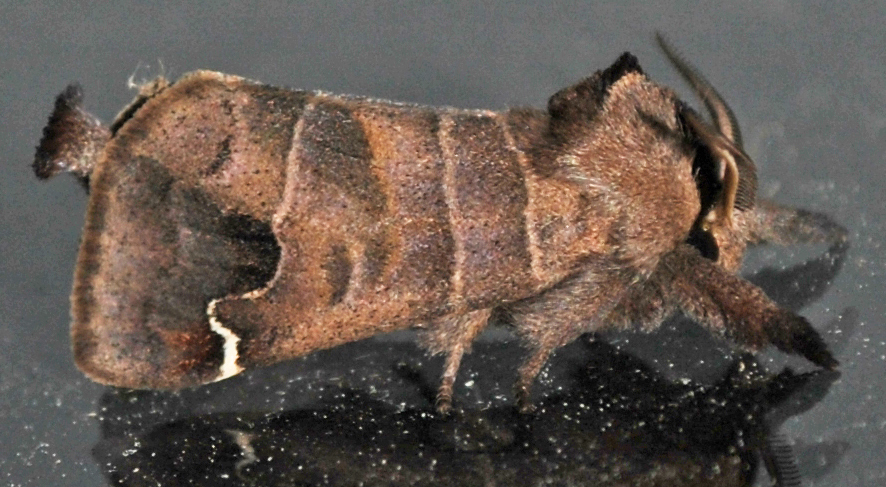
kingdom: Animalia
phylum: Arthropoda
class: Insecta
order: Lepidoptera
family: Notodontidae
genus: Clostera
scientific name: Clostera albosigma
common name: Sigmoid prominent
